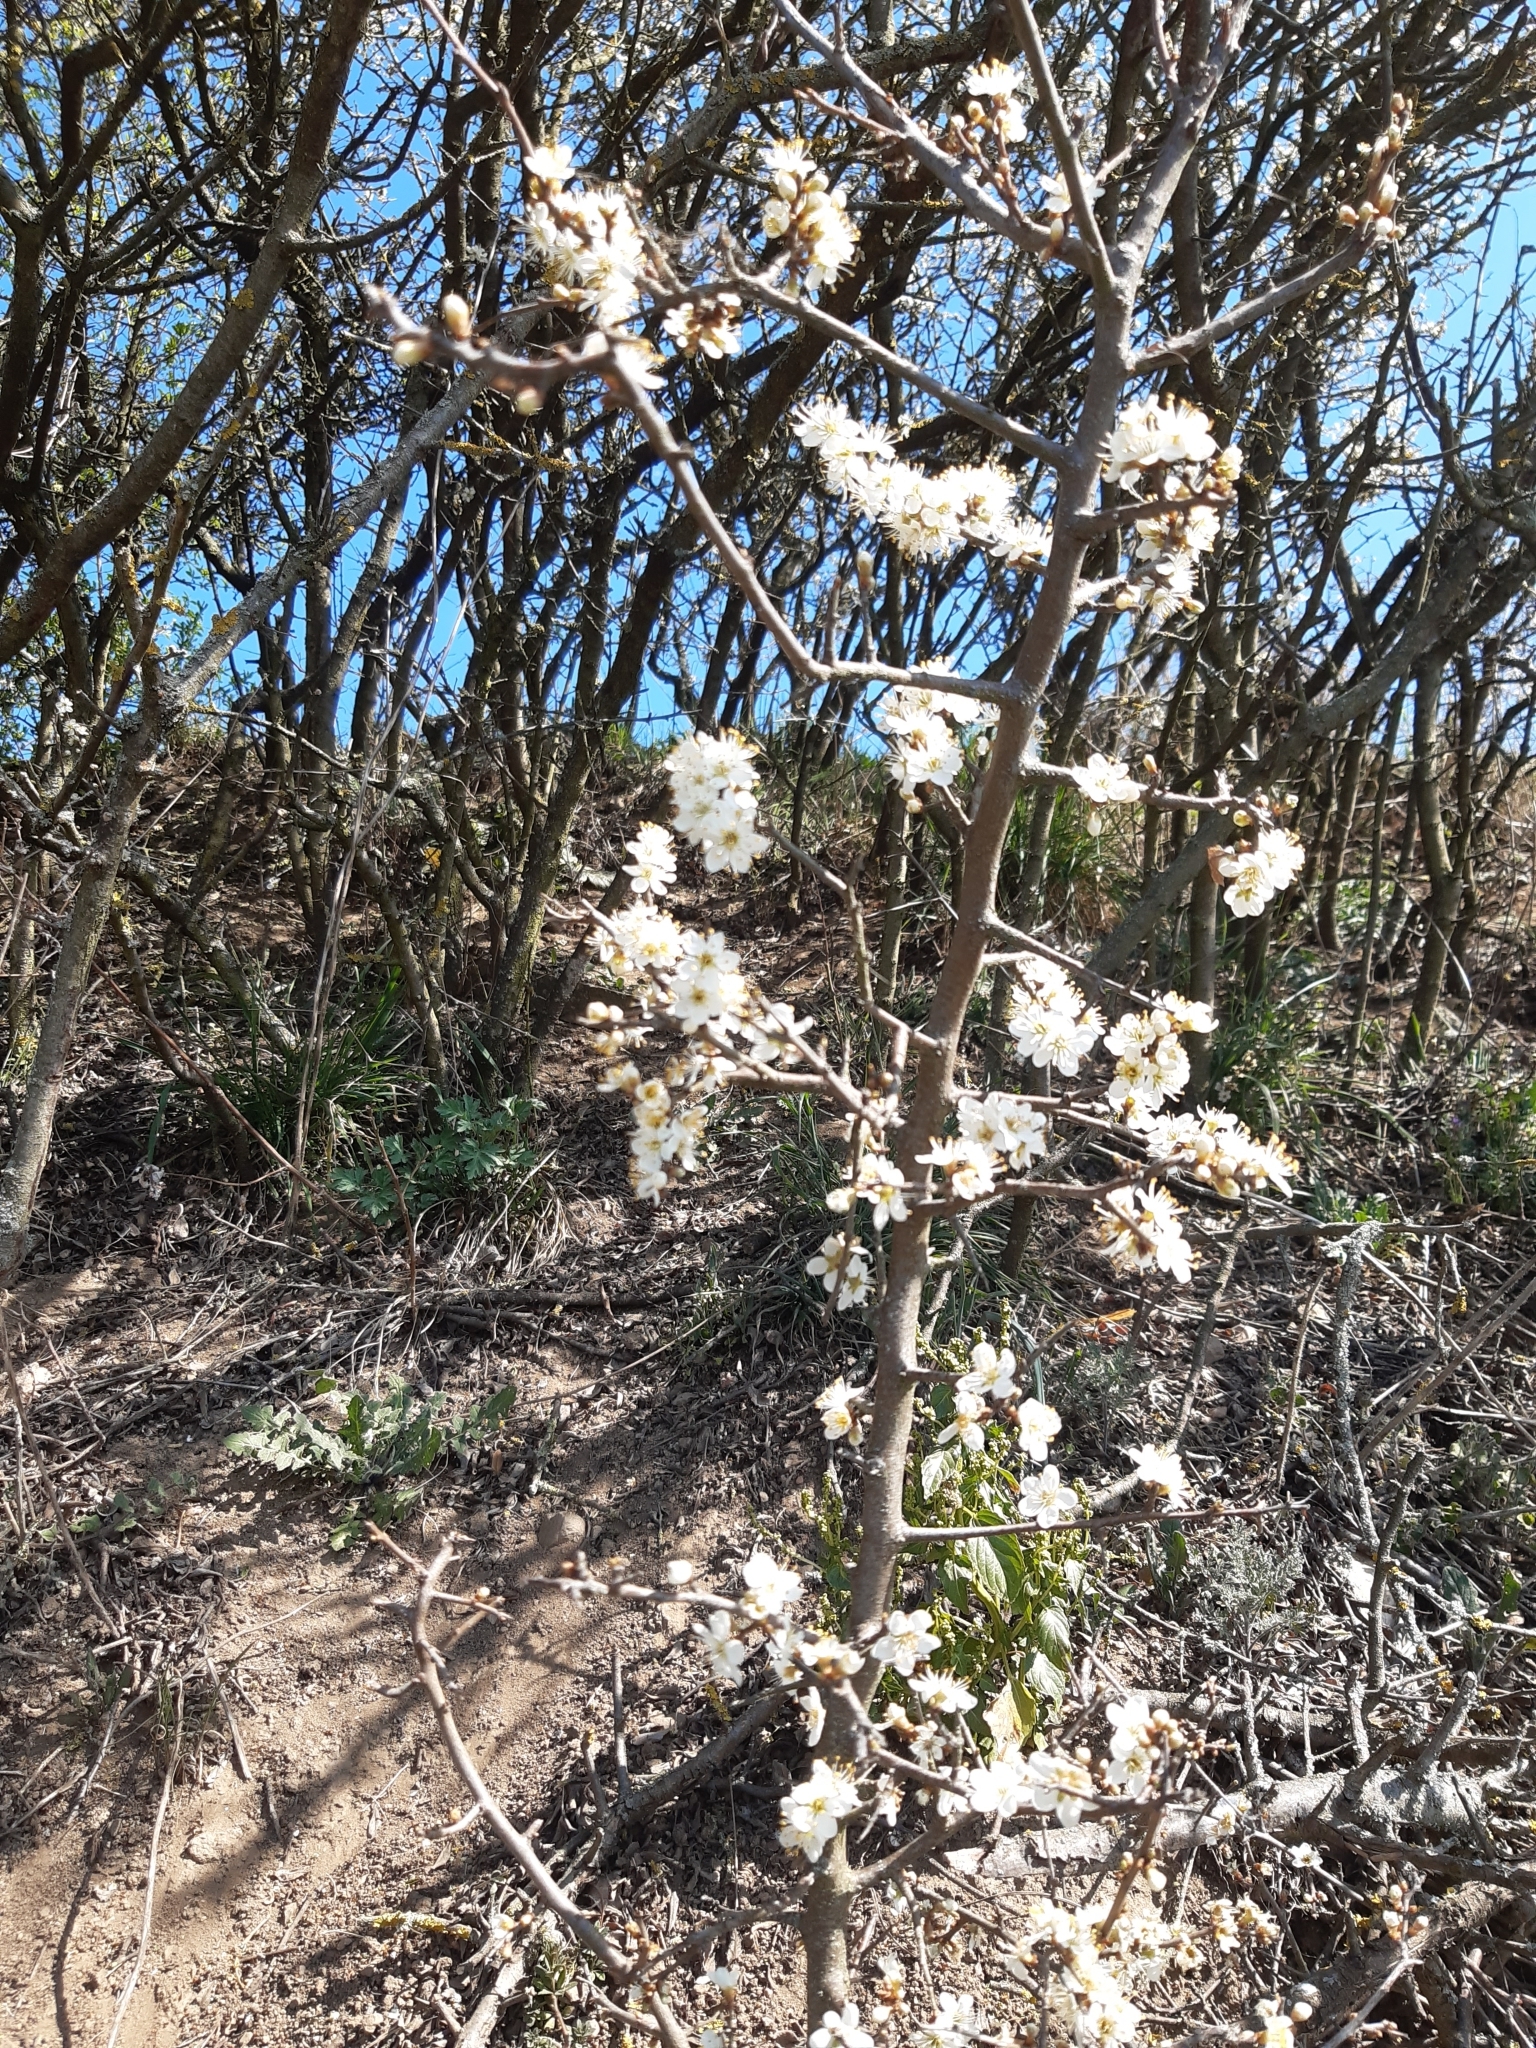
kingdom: Plantae
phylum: Tracheophyta
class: Magnoliopsida
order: Rosales
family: Rosaceae
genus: Prunus
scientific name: Prunus spinosa
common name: Blackthorn
